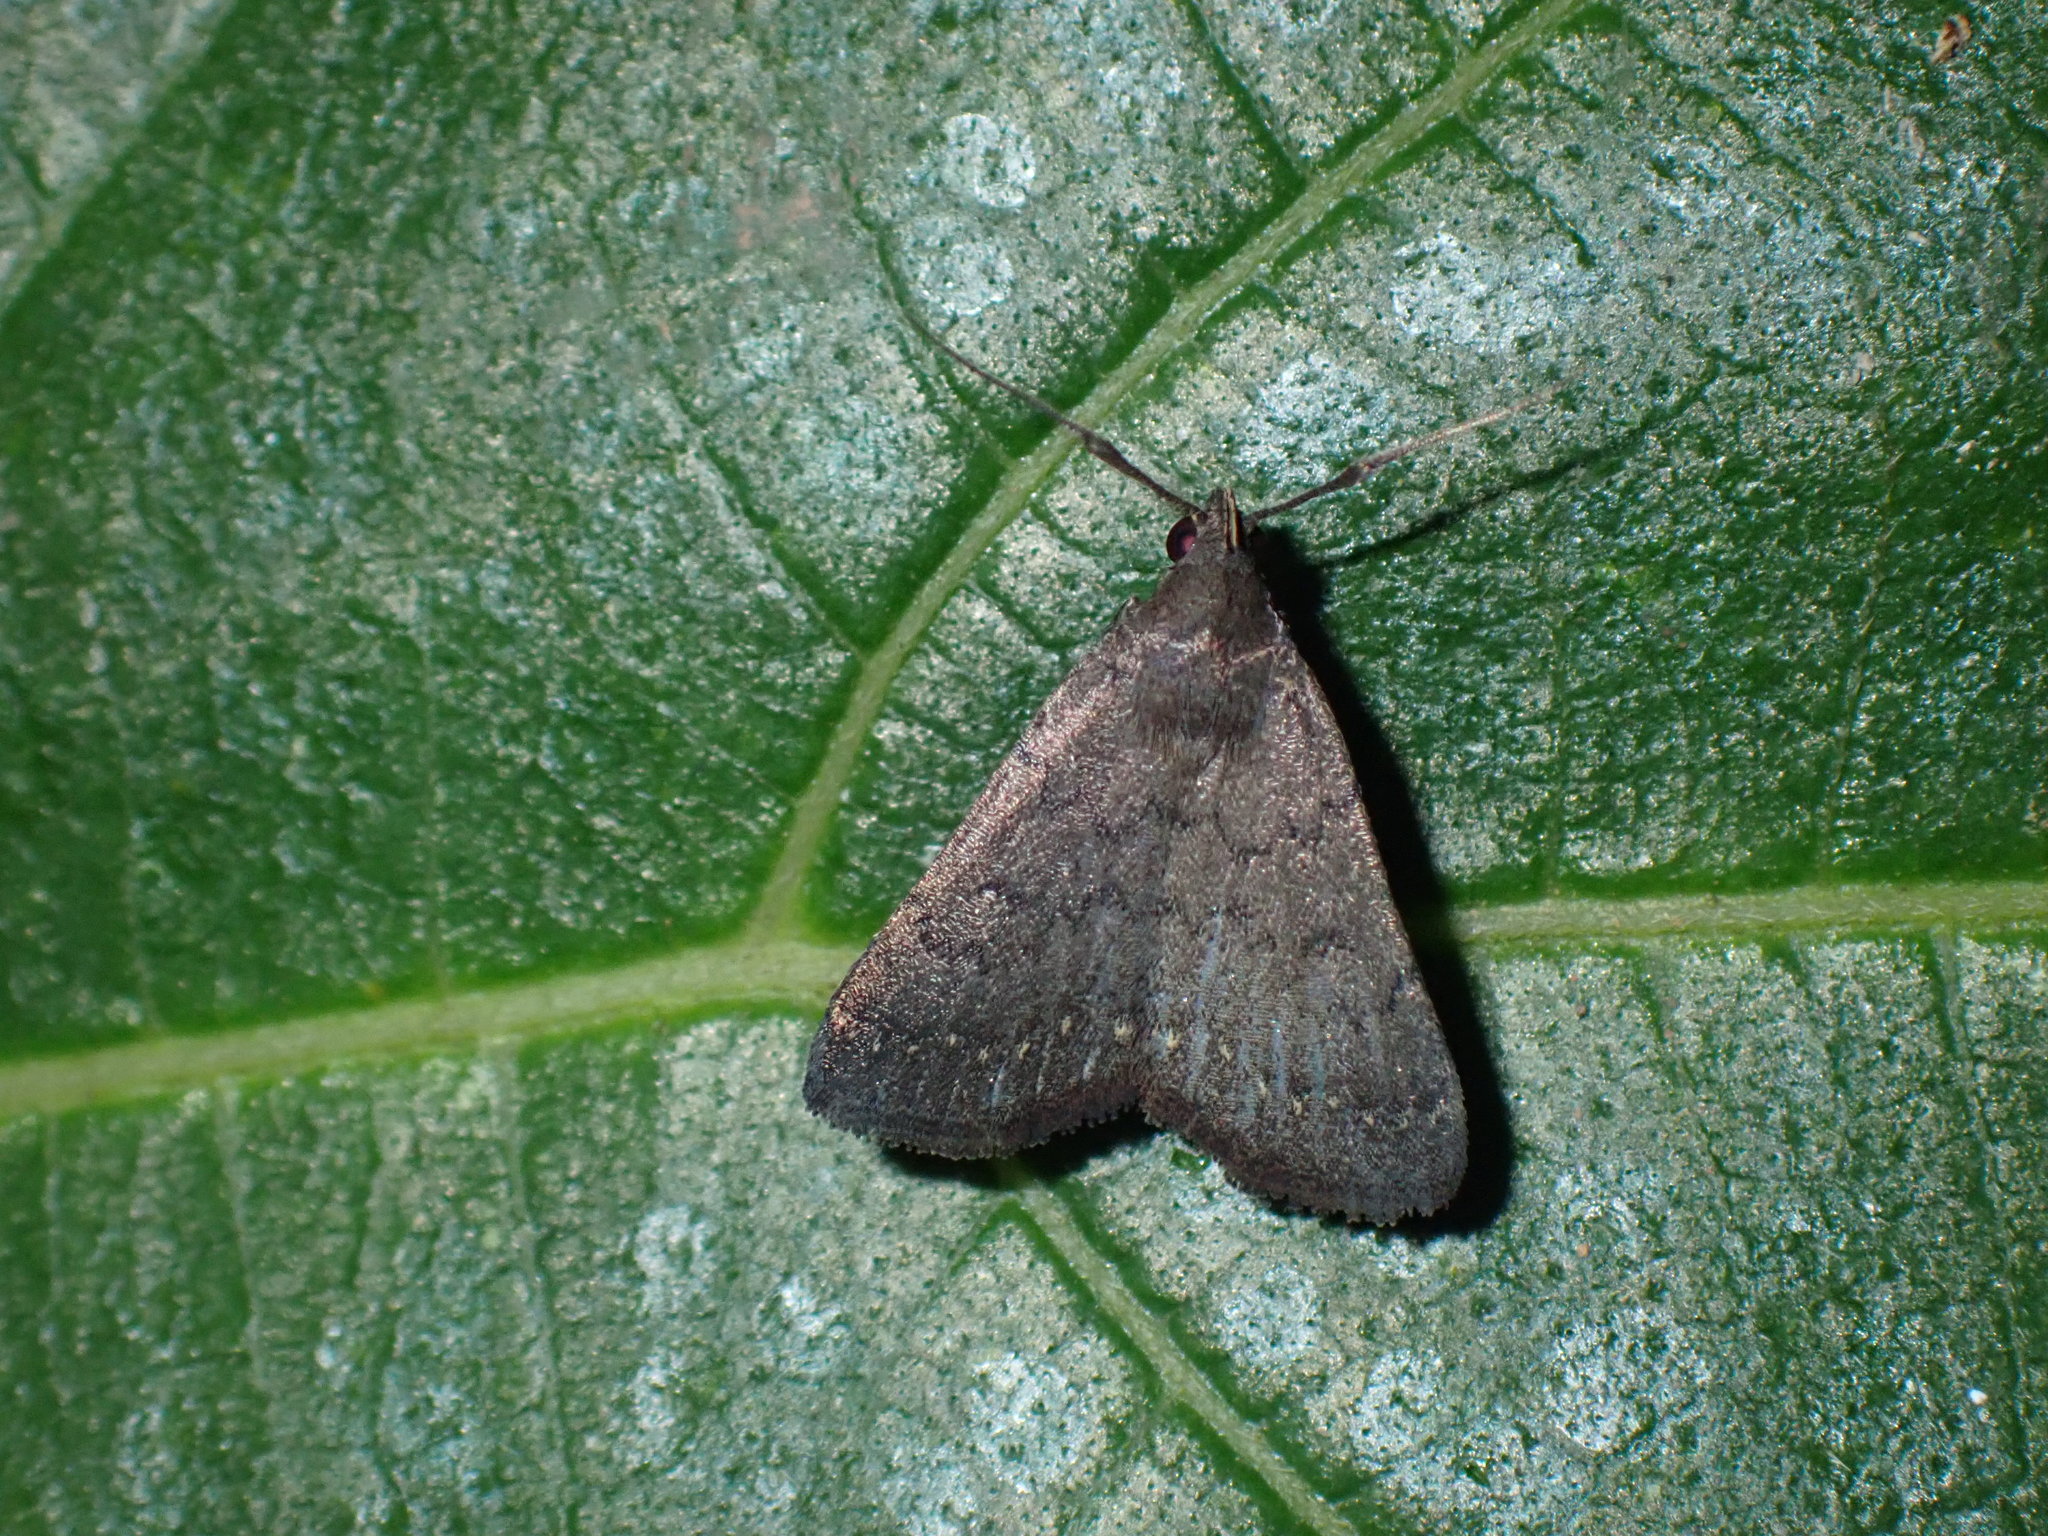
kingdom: Animalia
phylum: Arthropoda
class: Insecta
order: Lepidoptera
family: Erebidae
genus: Nodaria
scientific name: Nodaria externalis
